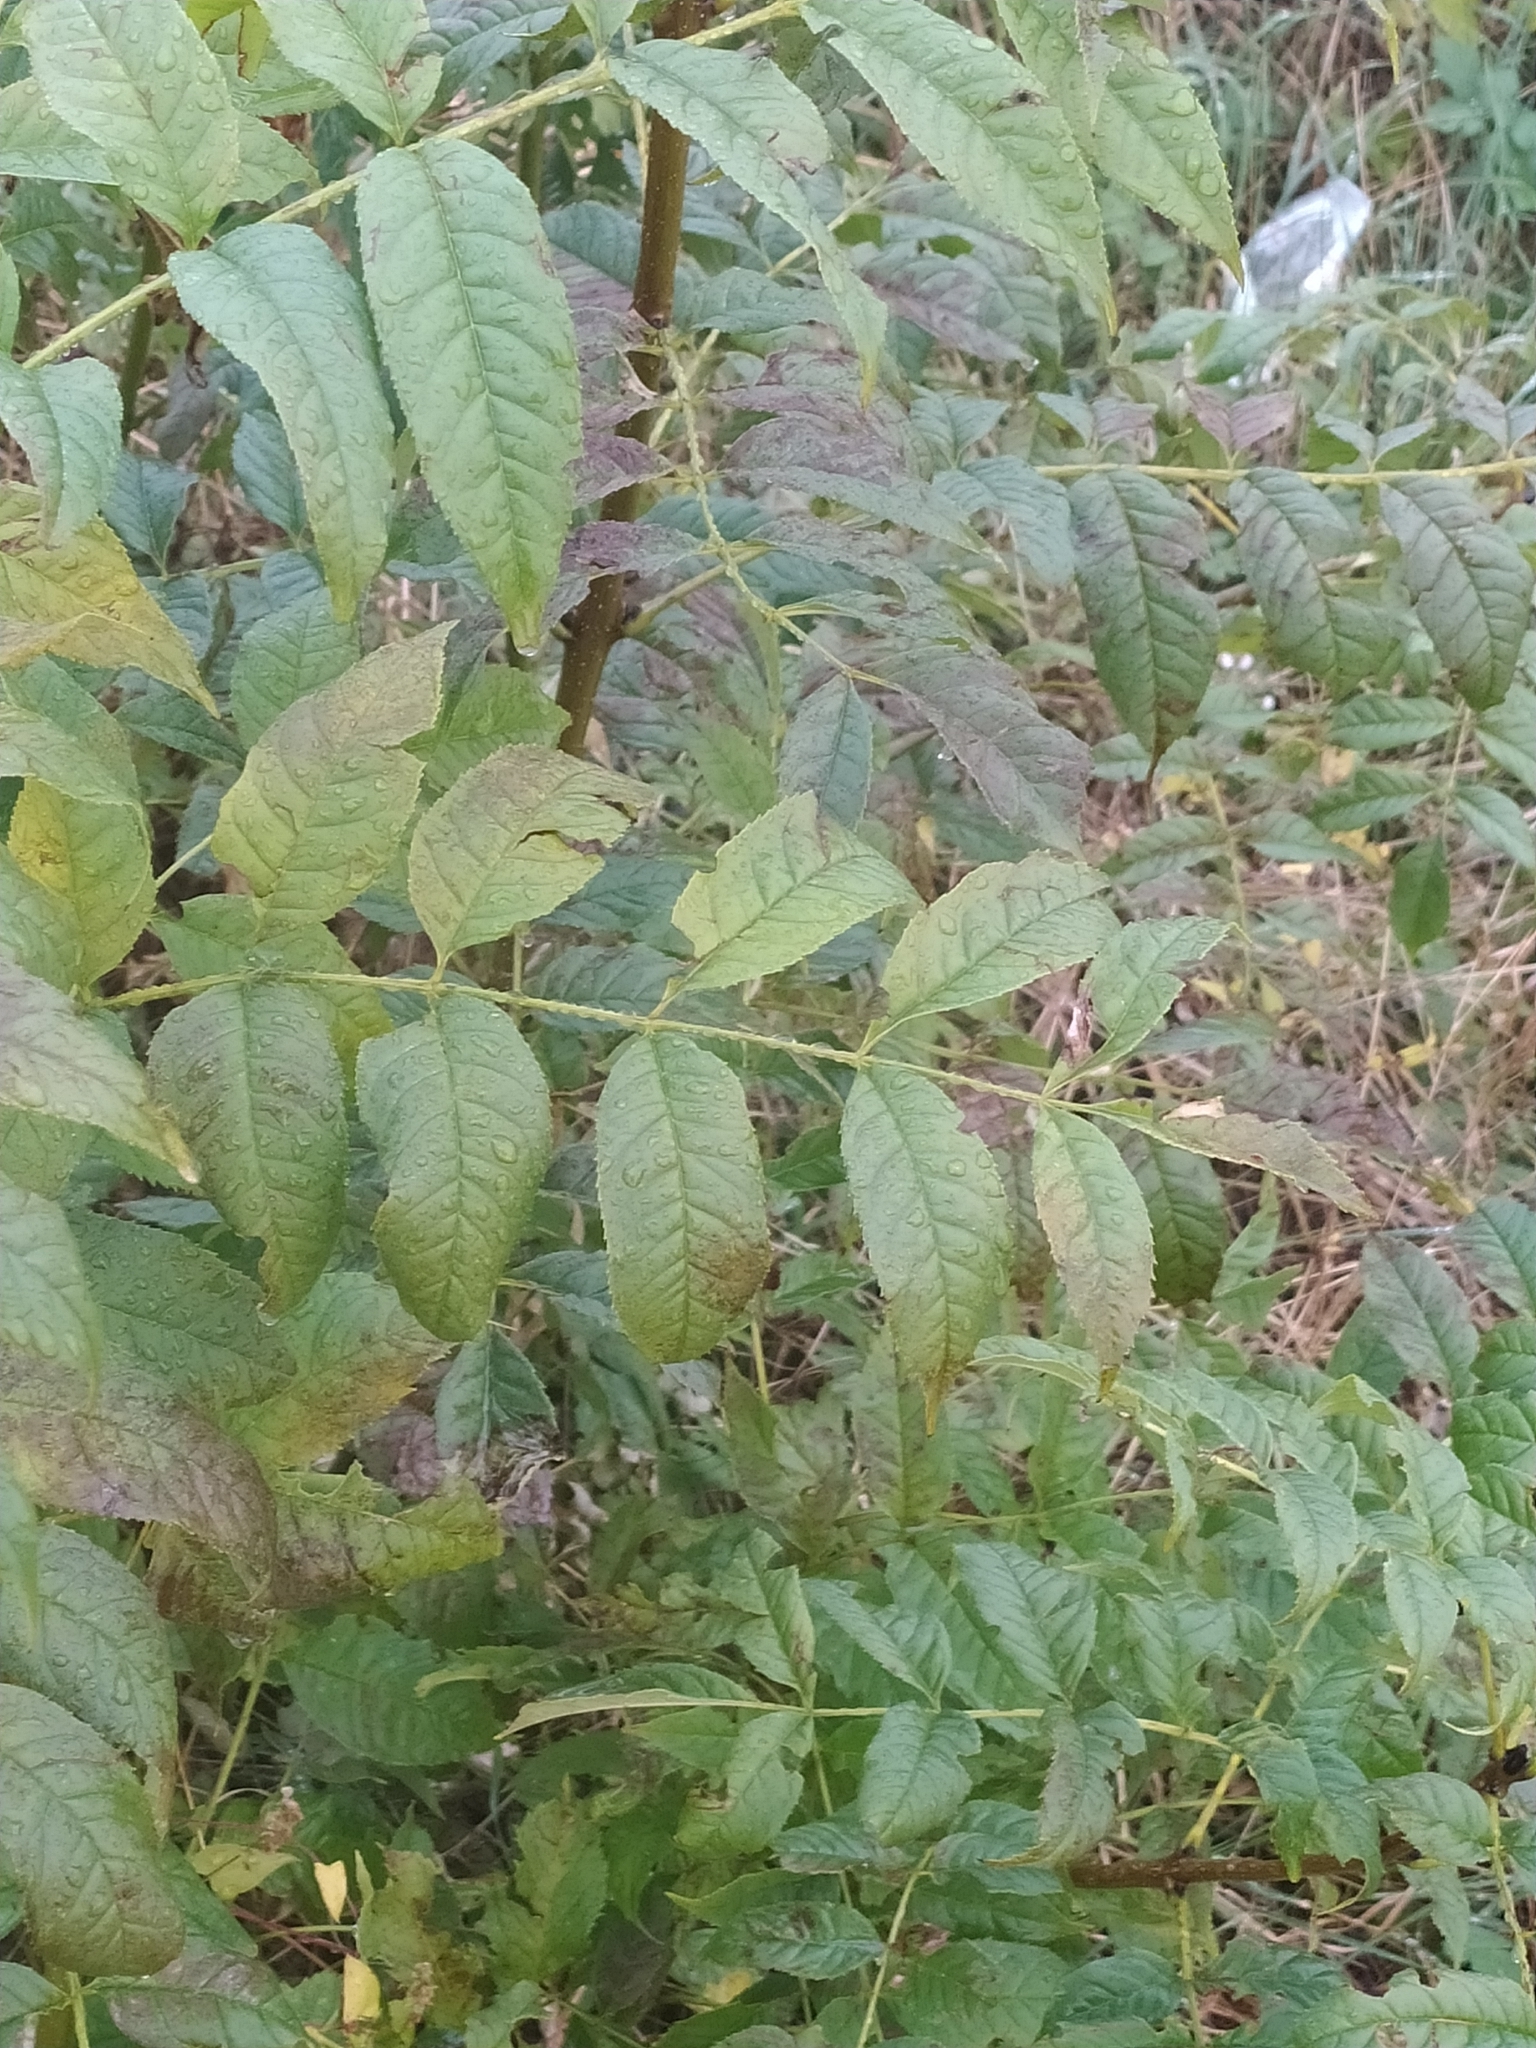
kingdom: Plantae
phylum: Tracheophyta
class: Magnoliopsida
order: Lamiales
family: Oleaceae
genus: Fraxinus
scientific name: Fraxinus excelsior
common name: European ash
